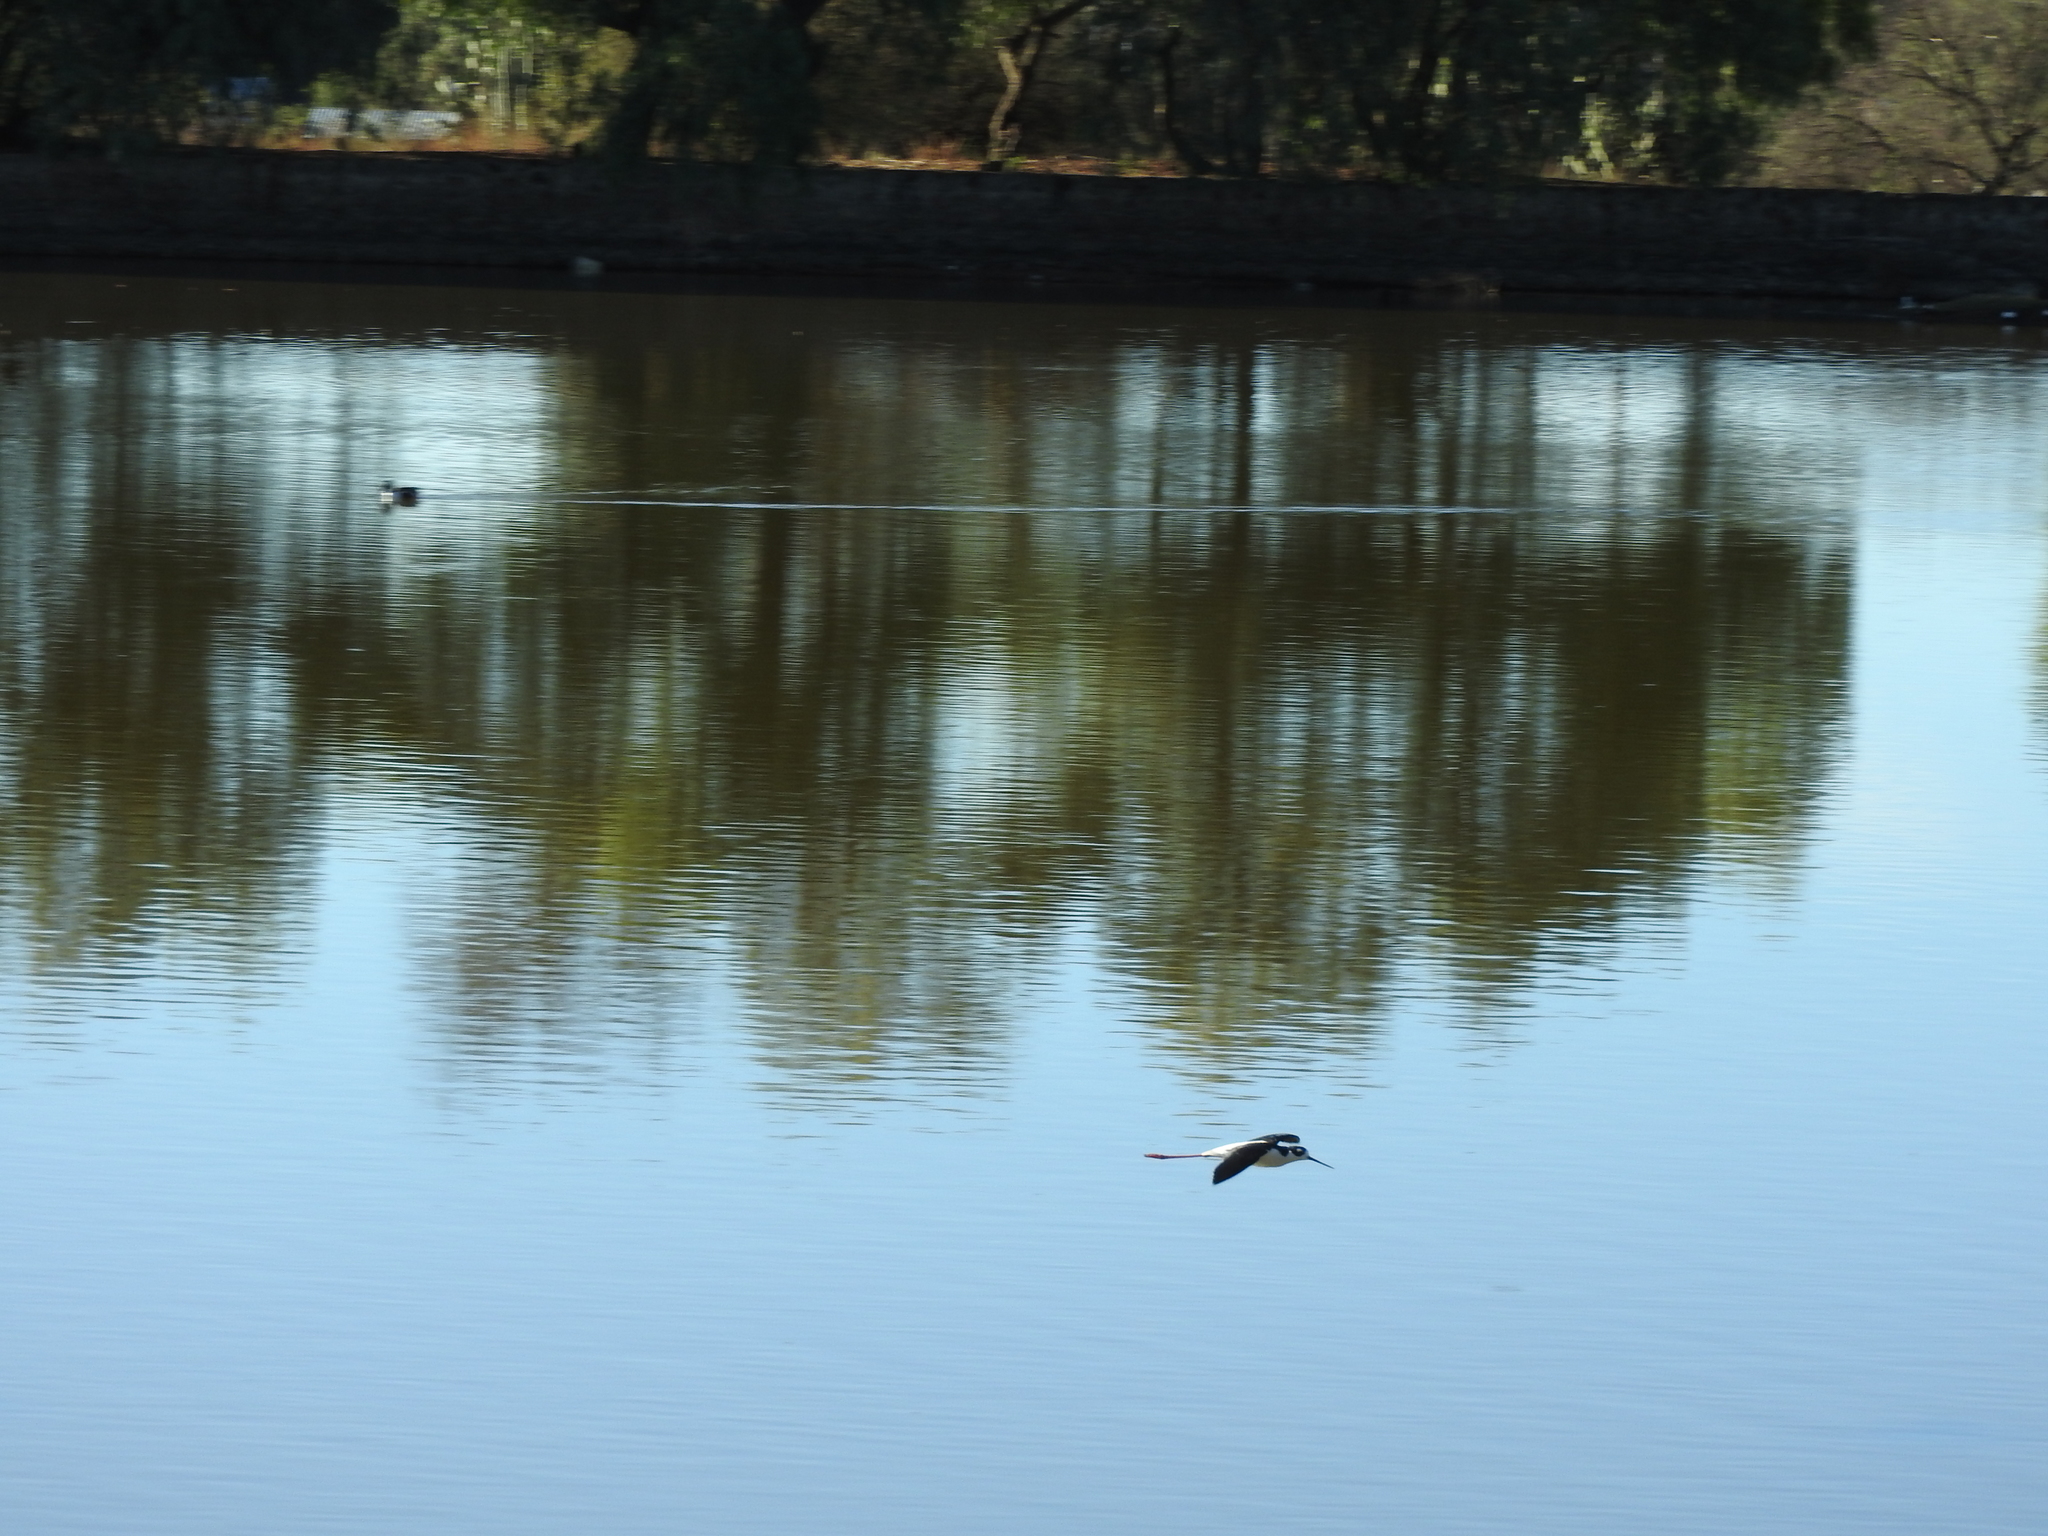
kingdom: Animalia
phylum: Chordata
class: Aves
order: Charadriiformes
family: Recurvirostridae
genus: Himantopus
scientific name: Himantopus mexicanus
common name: Black-necked stilt
